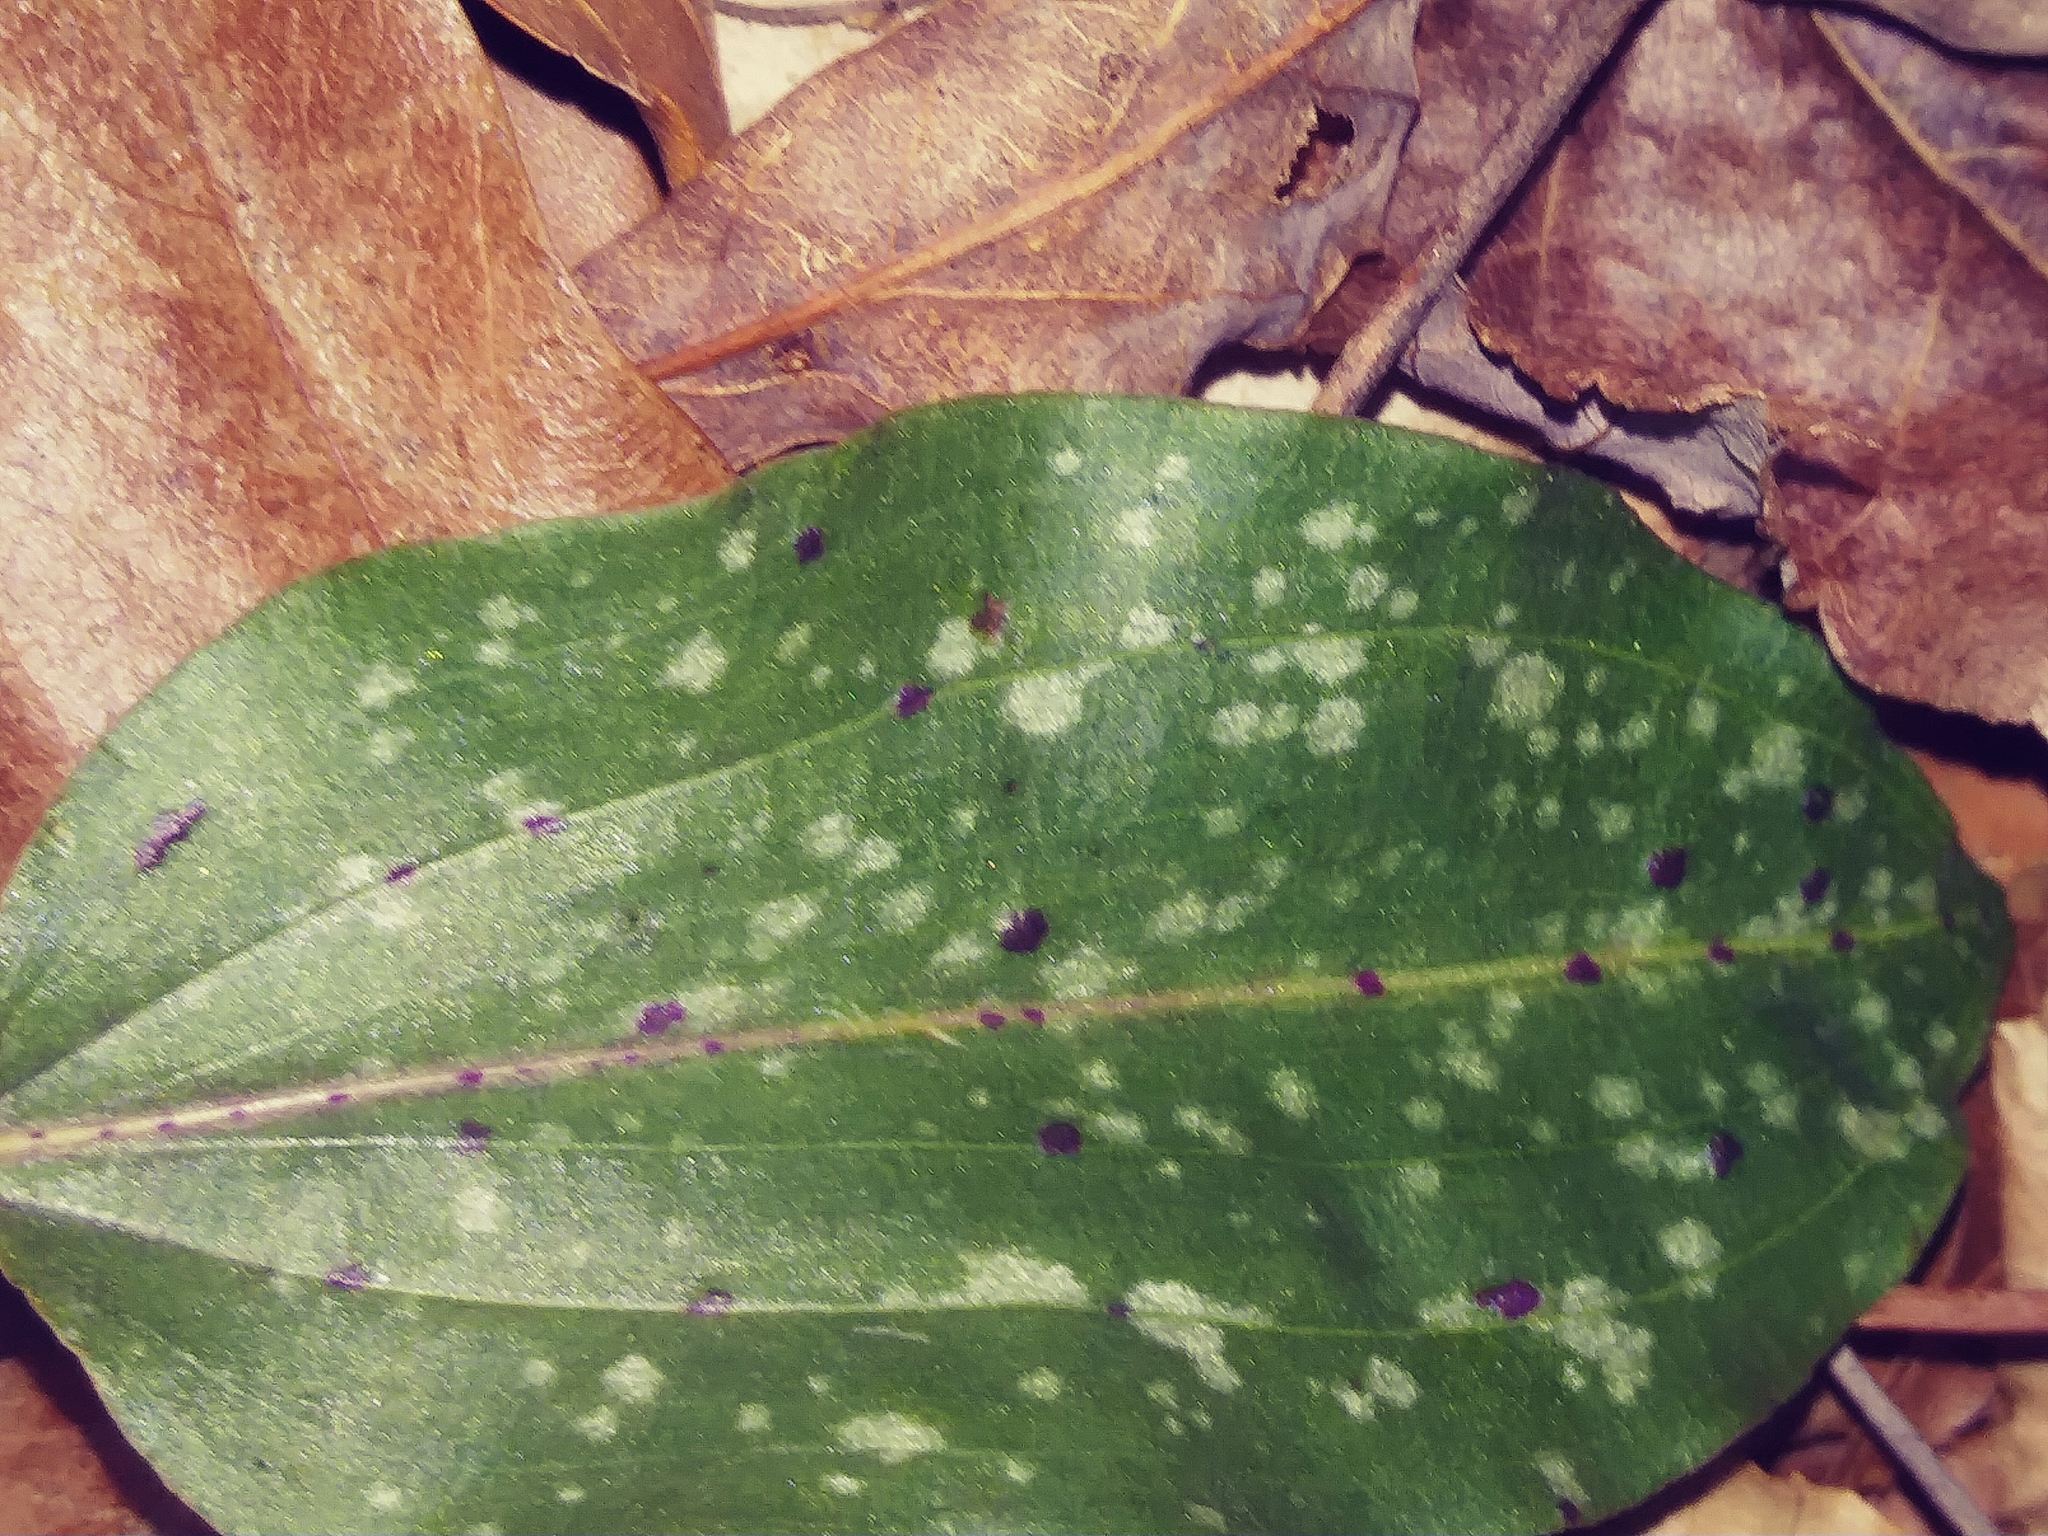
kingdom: Plantae
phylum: Tracheophyta
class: Liliopsida
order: Asparagales
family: Orchidaceae
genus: Tipularia
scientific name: Tipularia discolor
